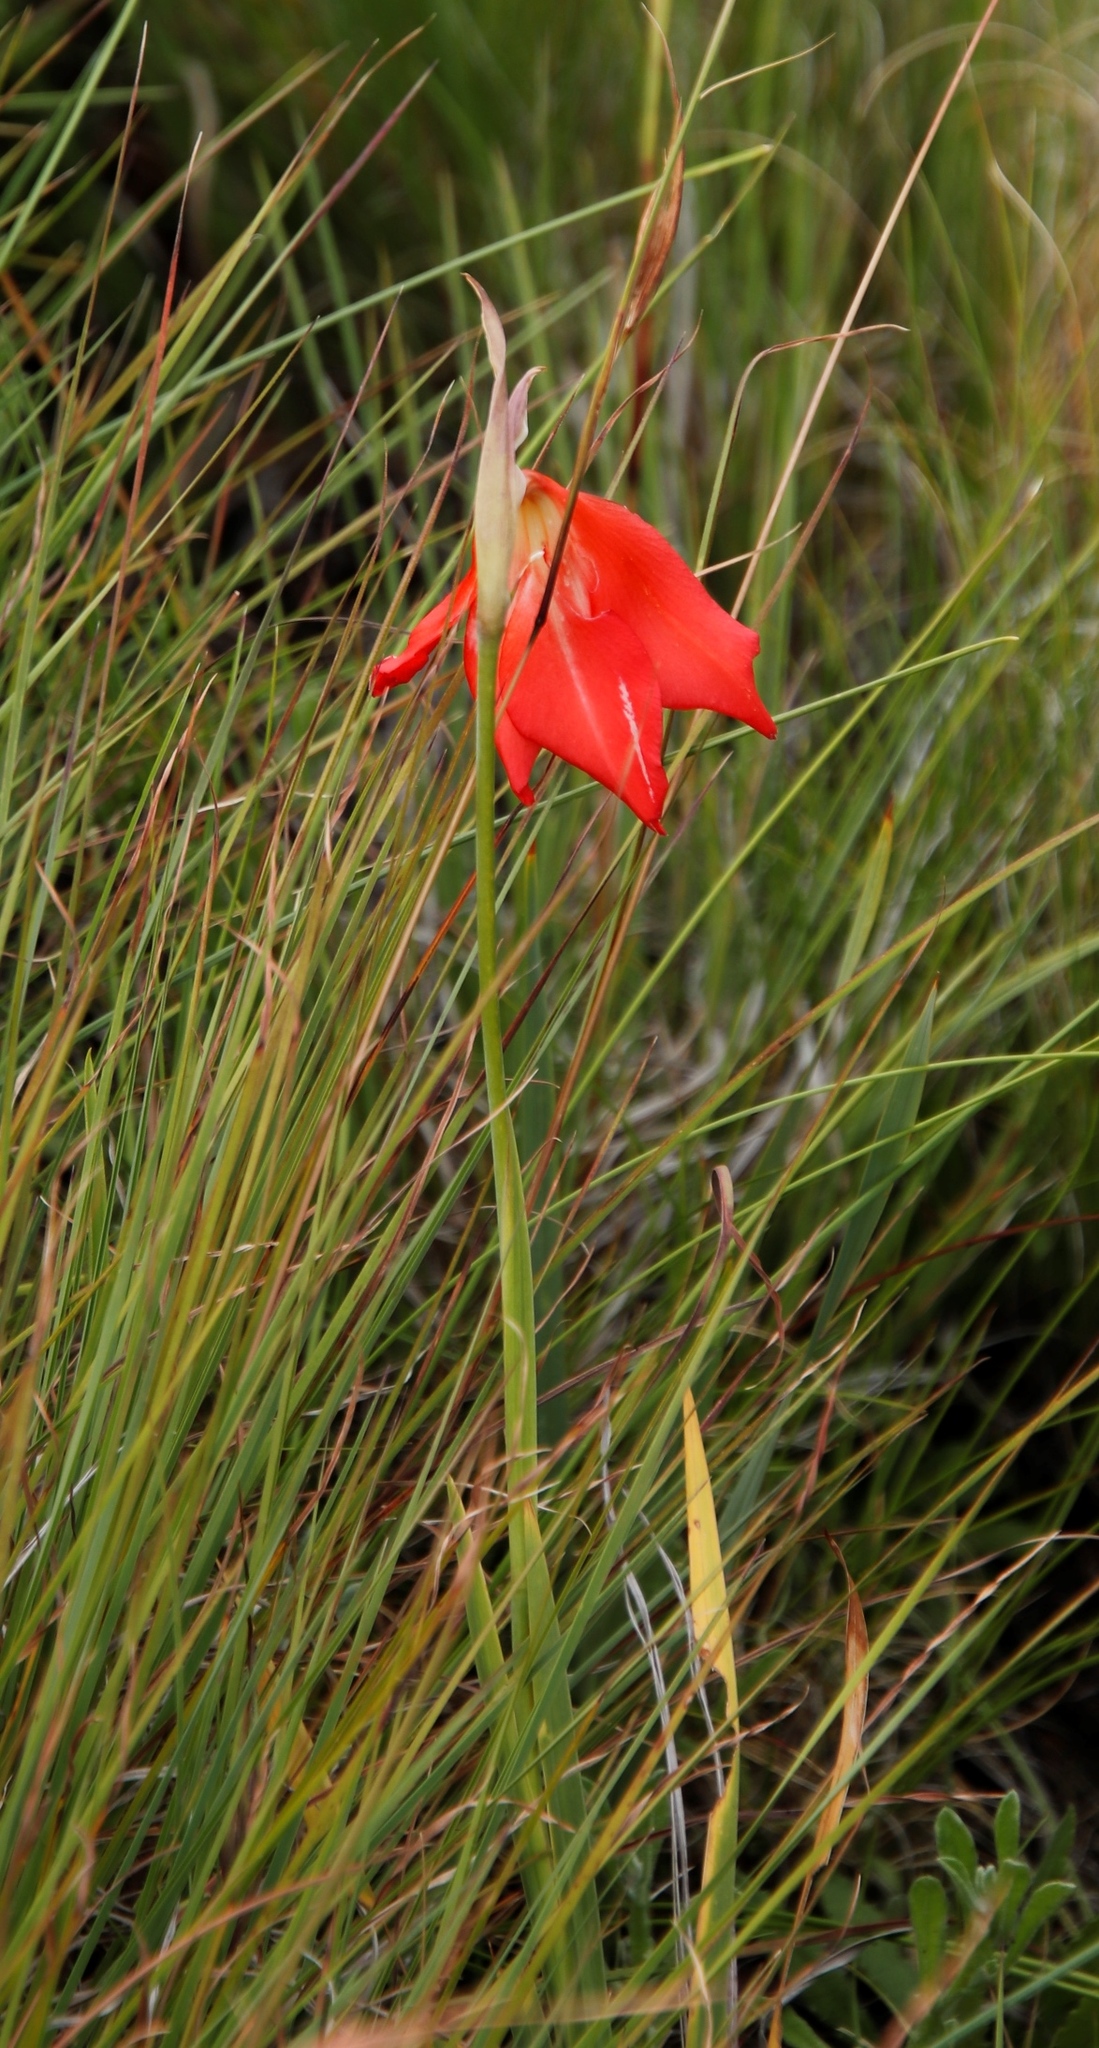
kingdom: Plantae
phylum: Tracheophyta
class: Liliopsida
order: Asparagales
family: Iridaceae
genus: Gladiolus
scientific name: Gladiolus saundersii
